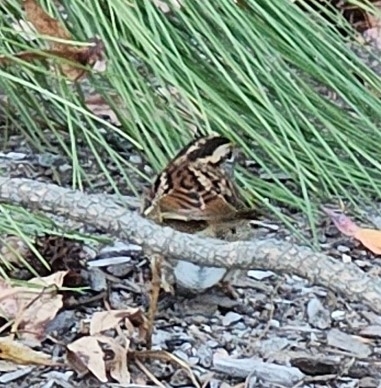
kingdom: Animalia
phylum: Chordata
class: Aves
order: Passeriformes
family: Passerellidae
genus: Zonotrichia
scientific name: Zonotrichia albicollis
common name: White-throated sparrow
